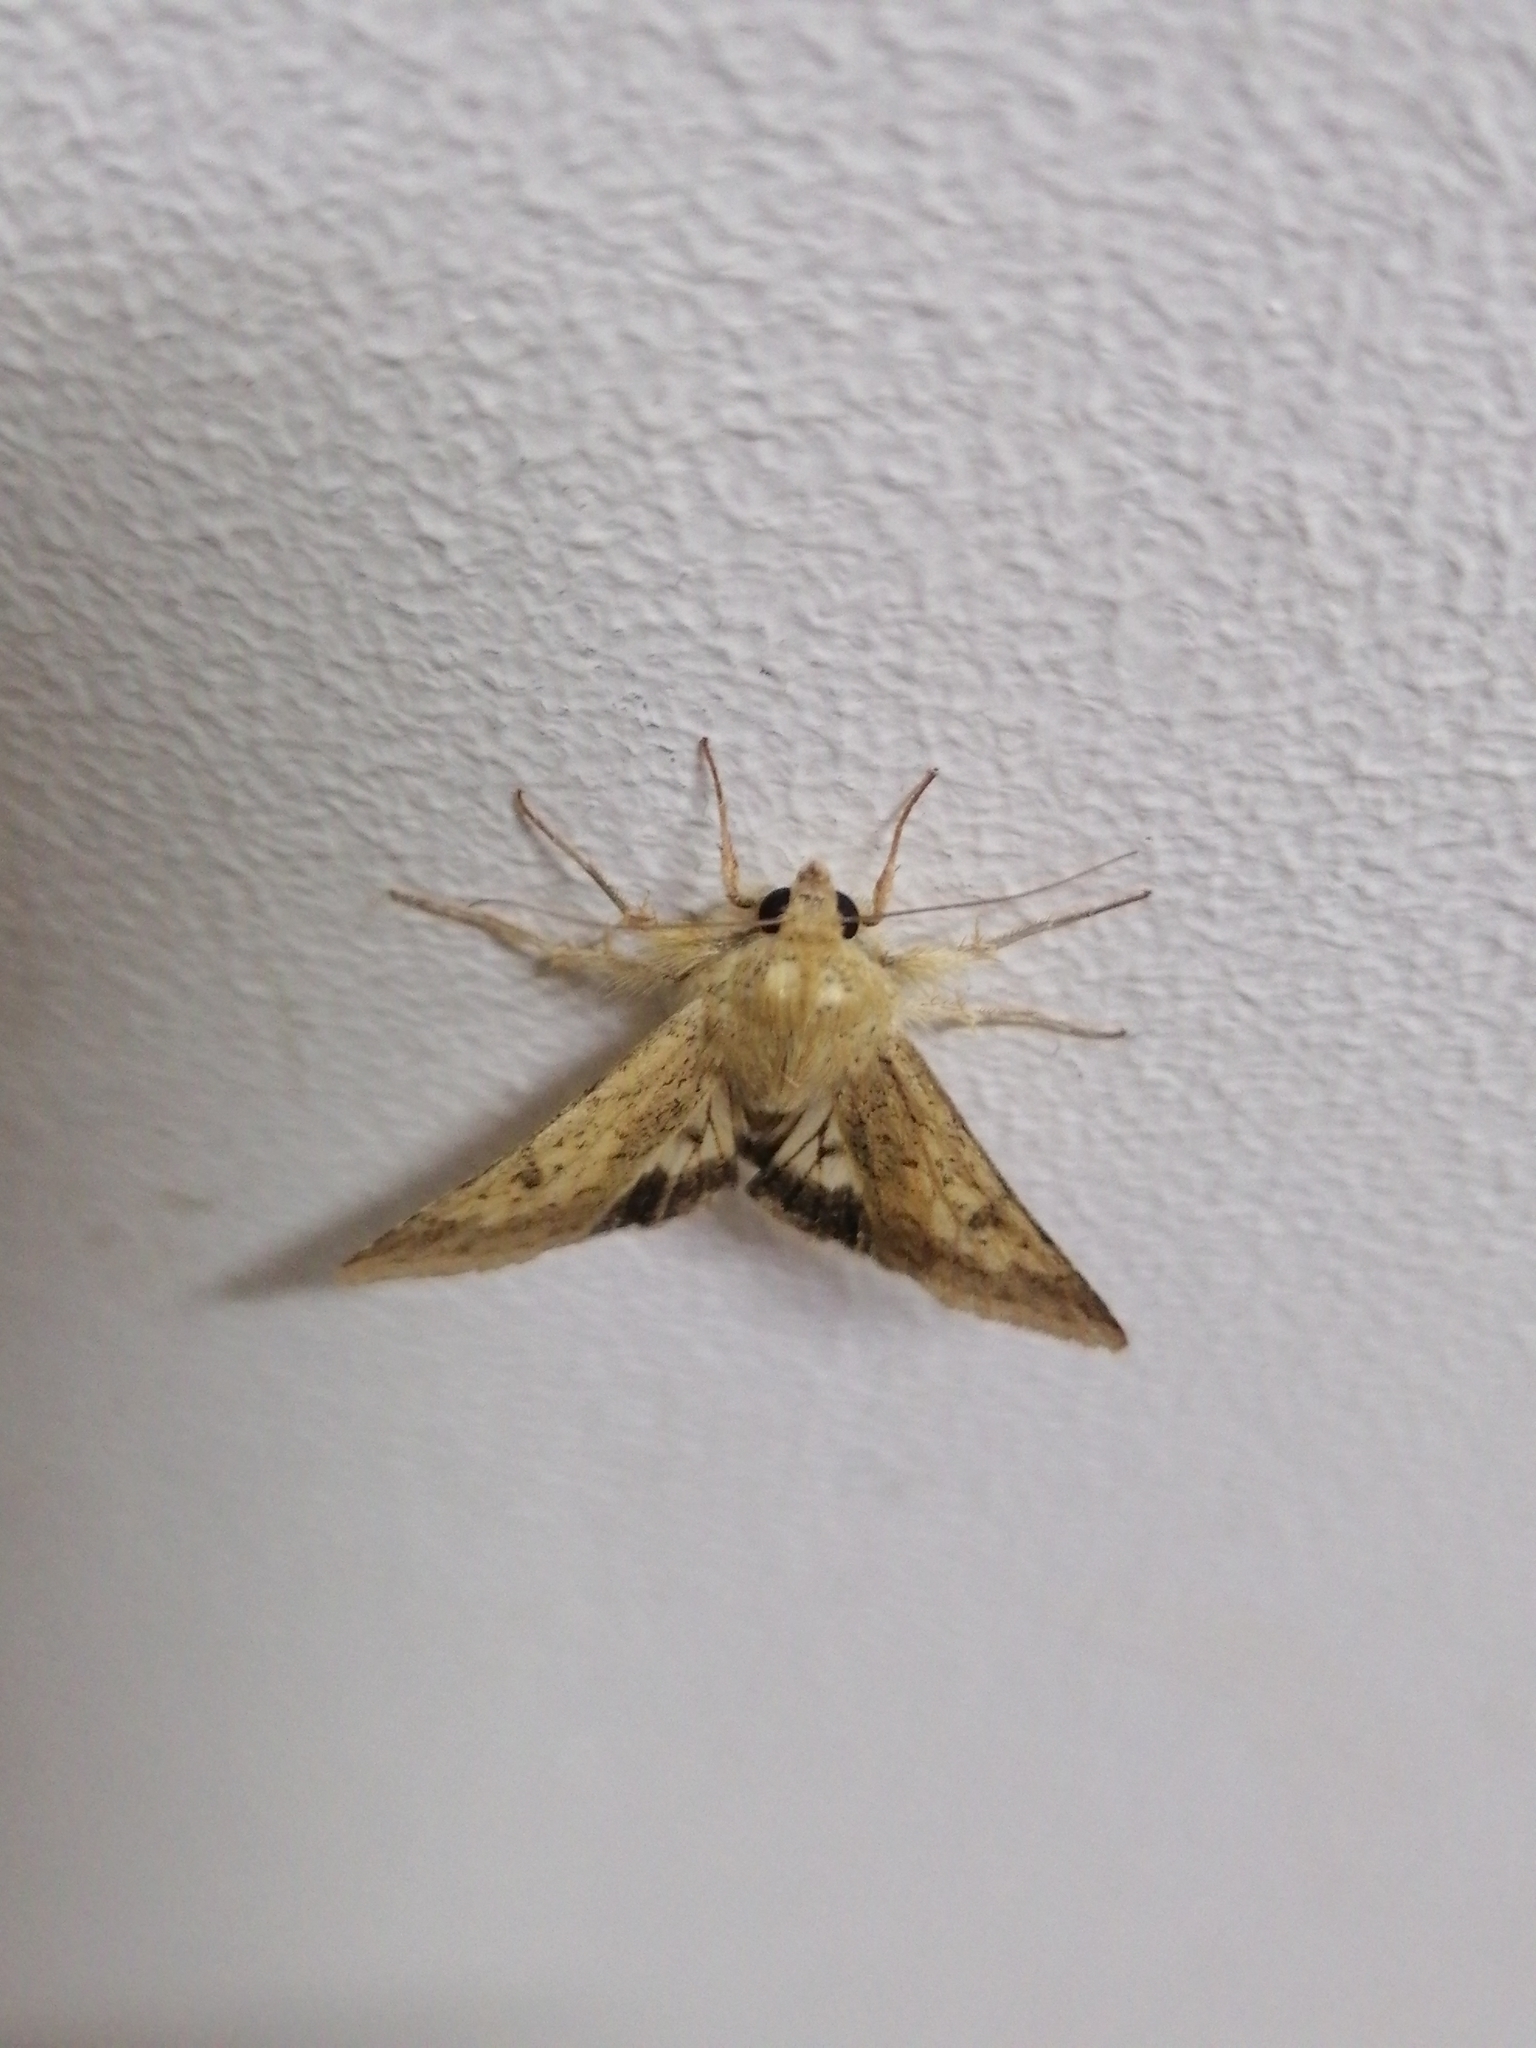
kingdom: Animalia
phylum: Arthropoda
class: Insecta
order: Lepidoptera
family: Noctuidae
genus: Helicoverpa
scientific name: Helicoverpa armigera
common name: Cotton bollworm
